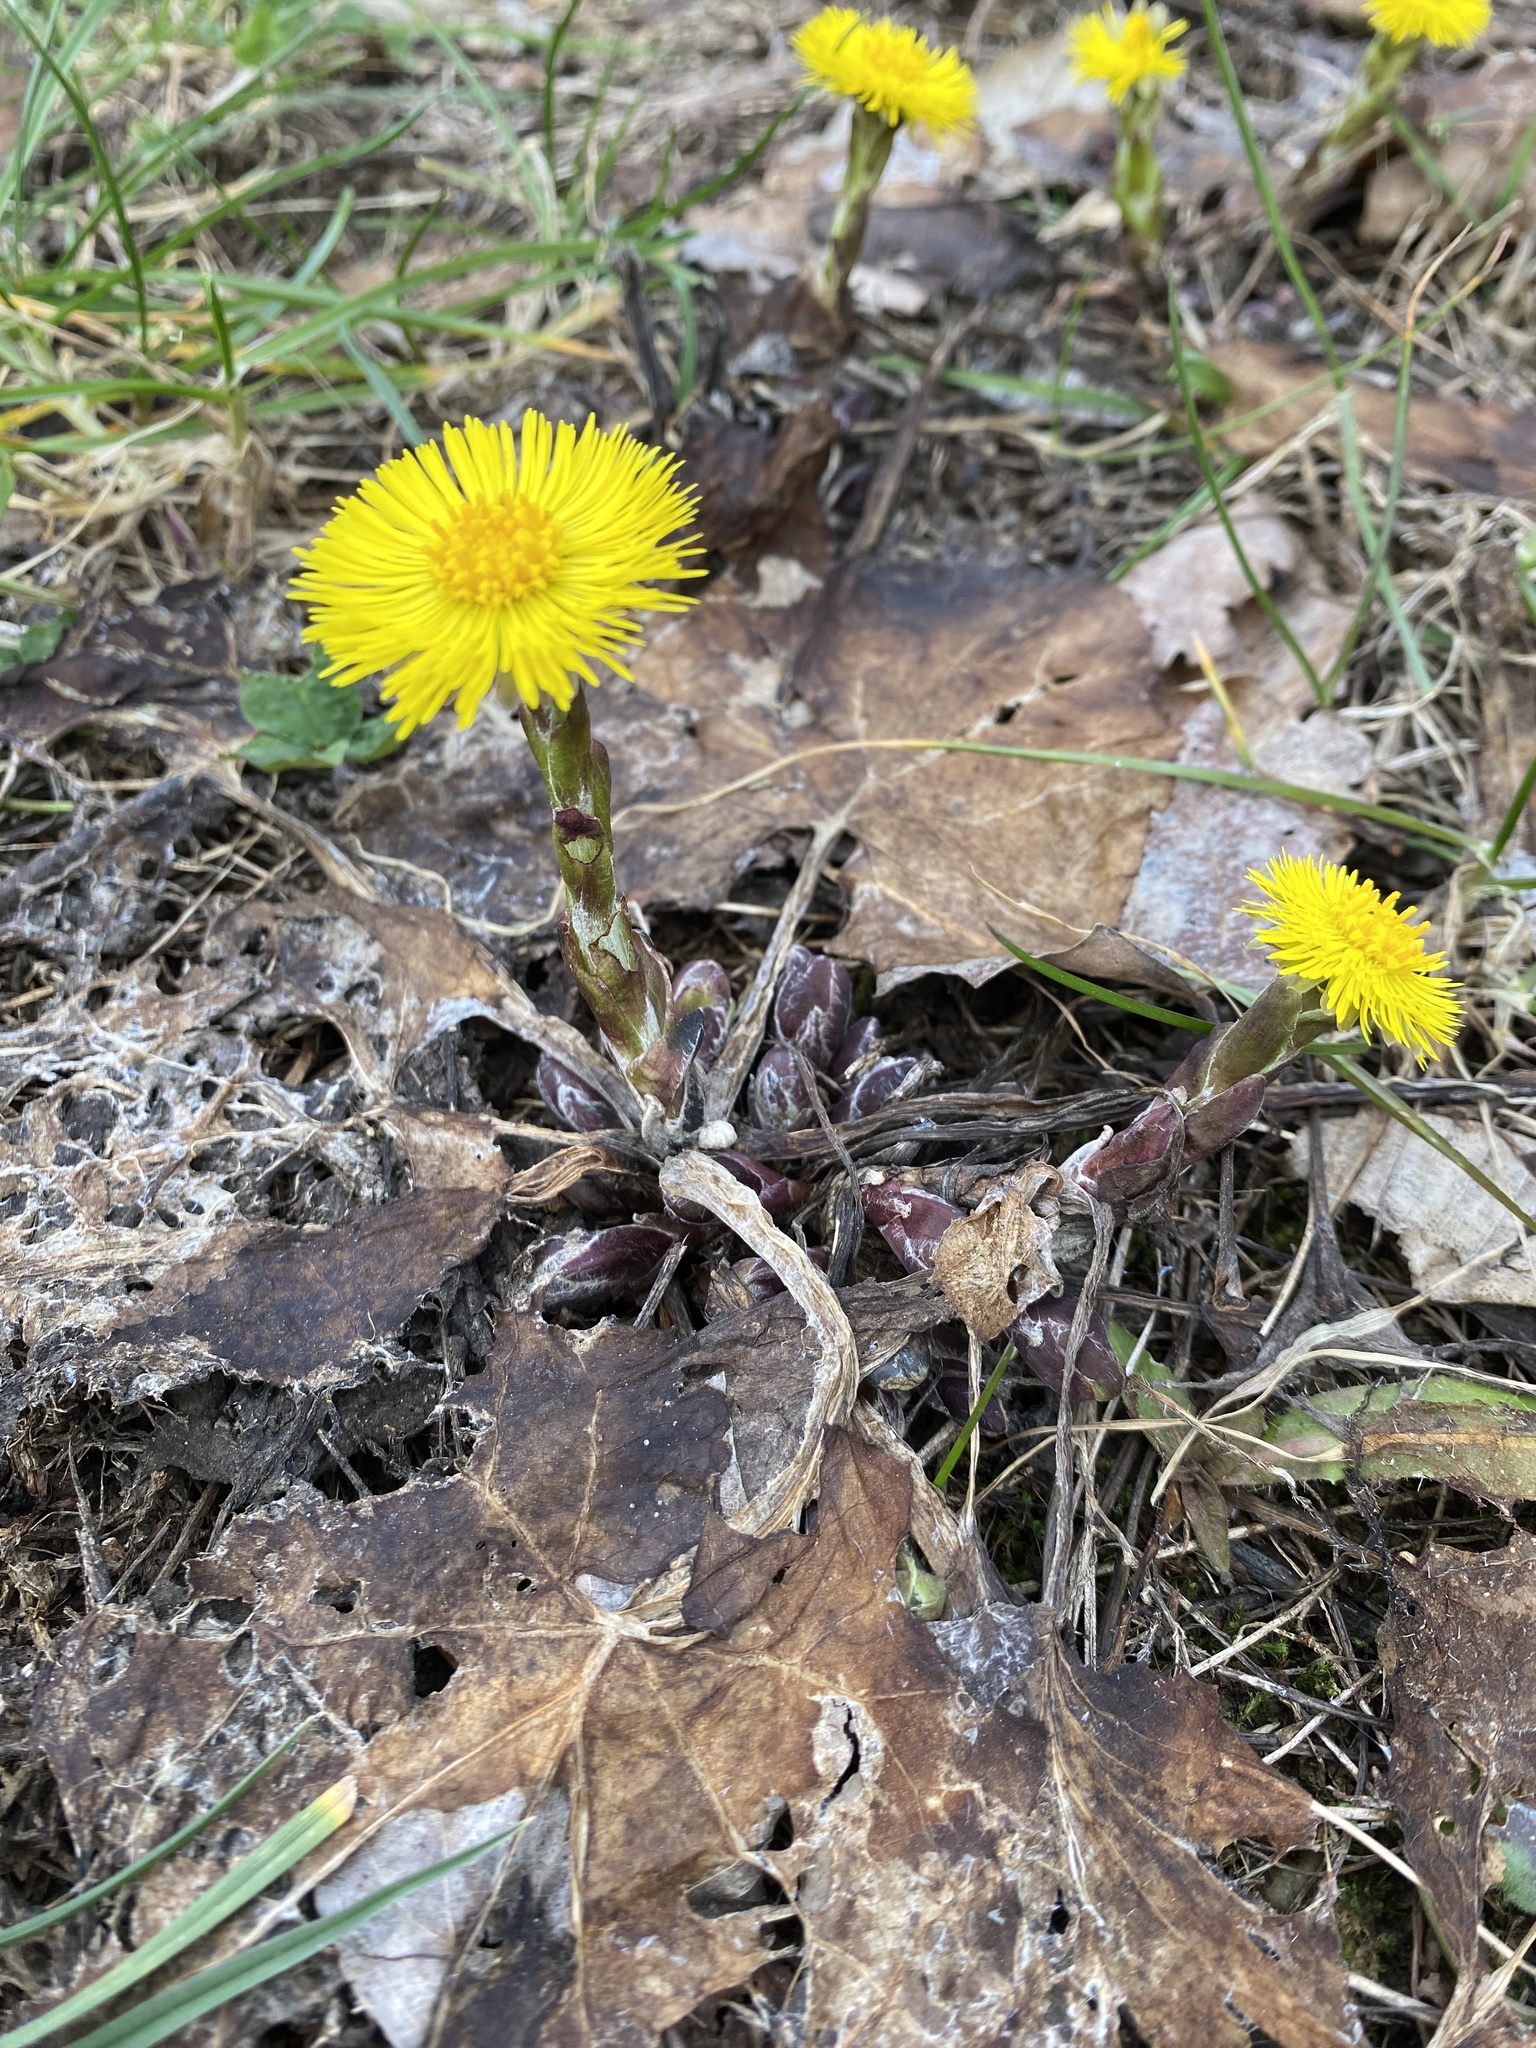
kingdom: Plantae
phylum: Tracheophyta
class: Magnoliopsida
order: Asterales
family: Asteraceae
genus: Tussilago
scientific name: Tussilago farfara
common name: Coltsfoot
